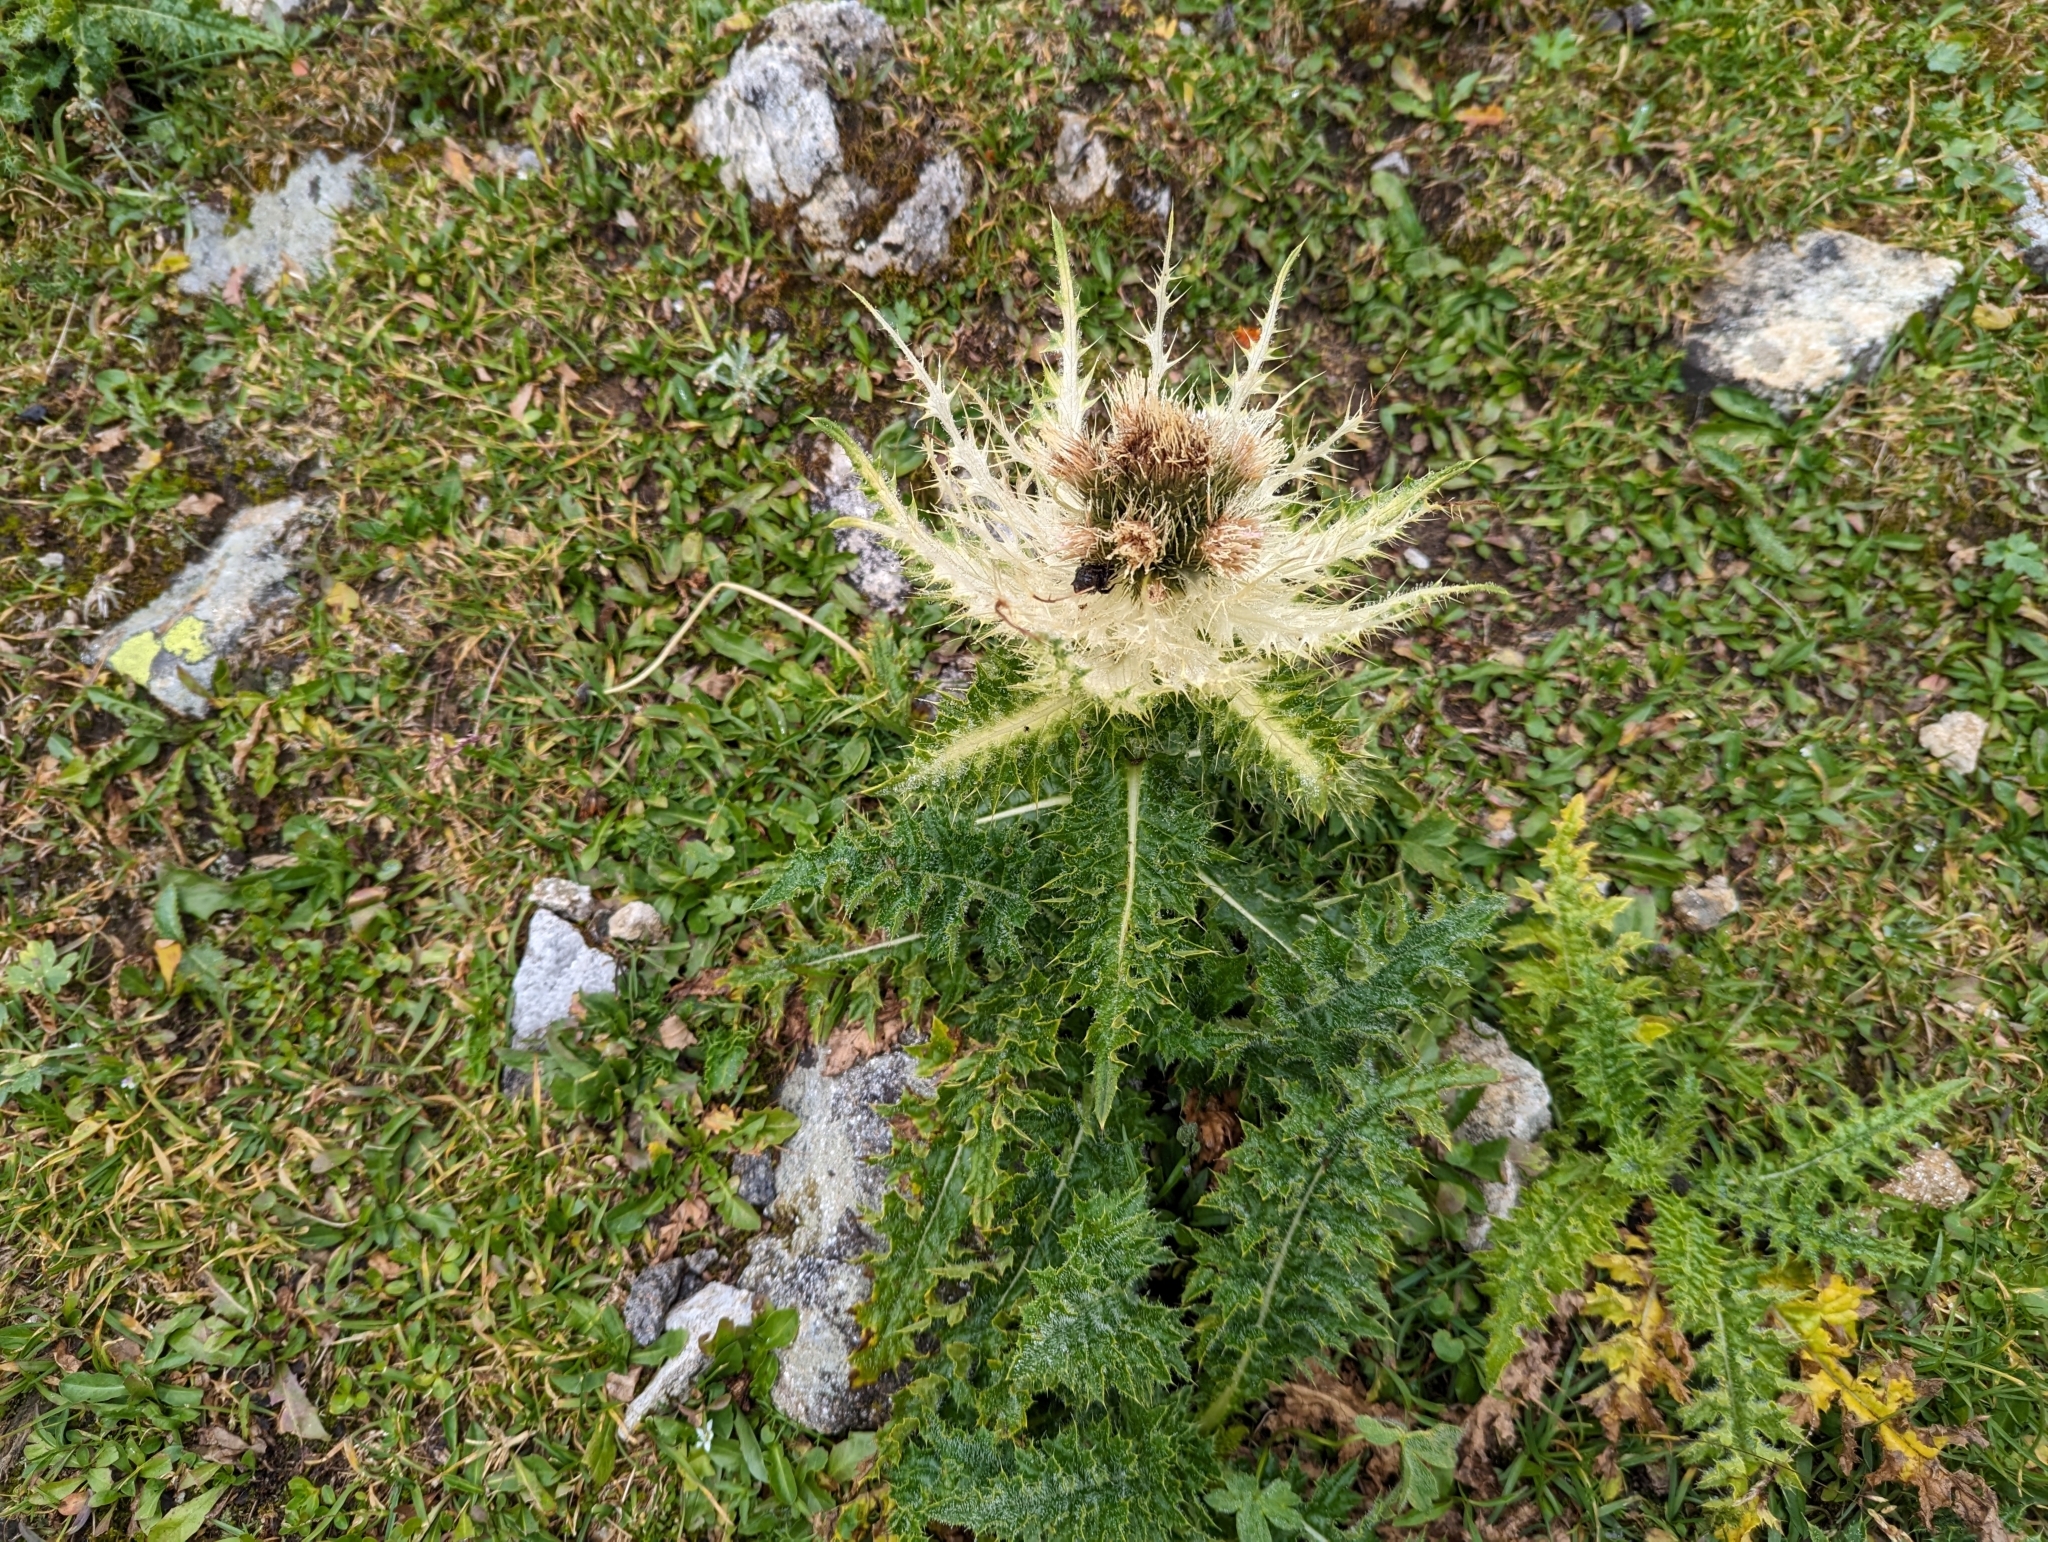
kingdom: Plantae
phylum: Tracheophyta
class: Magnoliopsida
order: Asterales
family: Asteraceae
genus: Cirsium
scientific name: Cirsium spinosissimum
